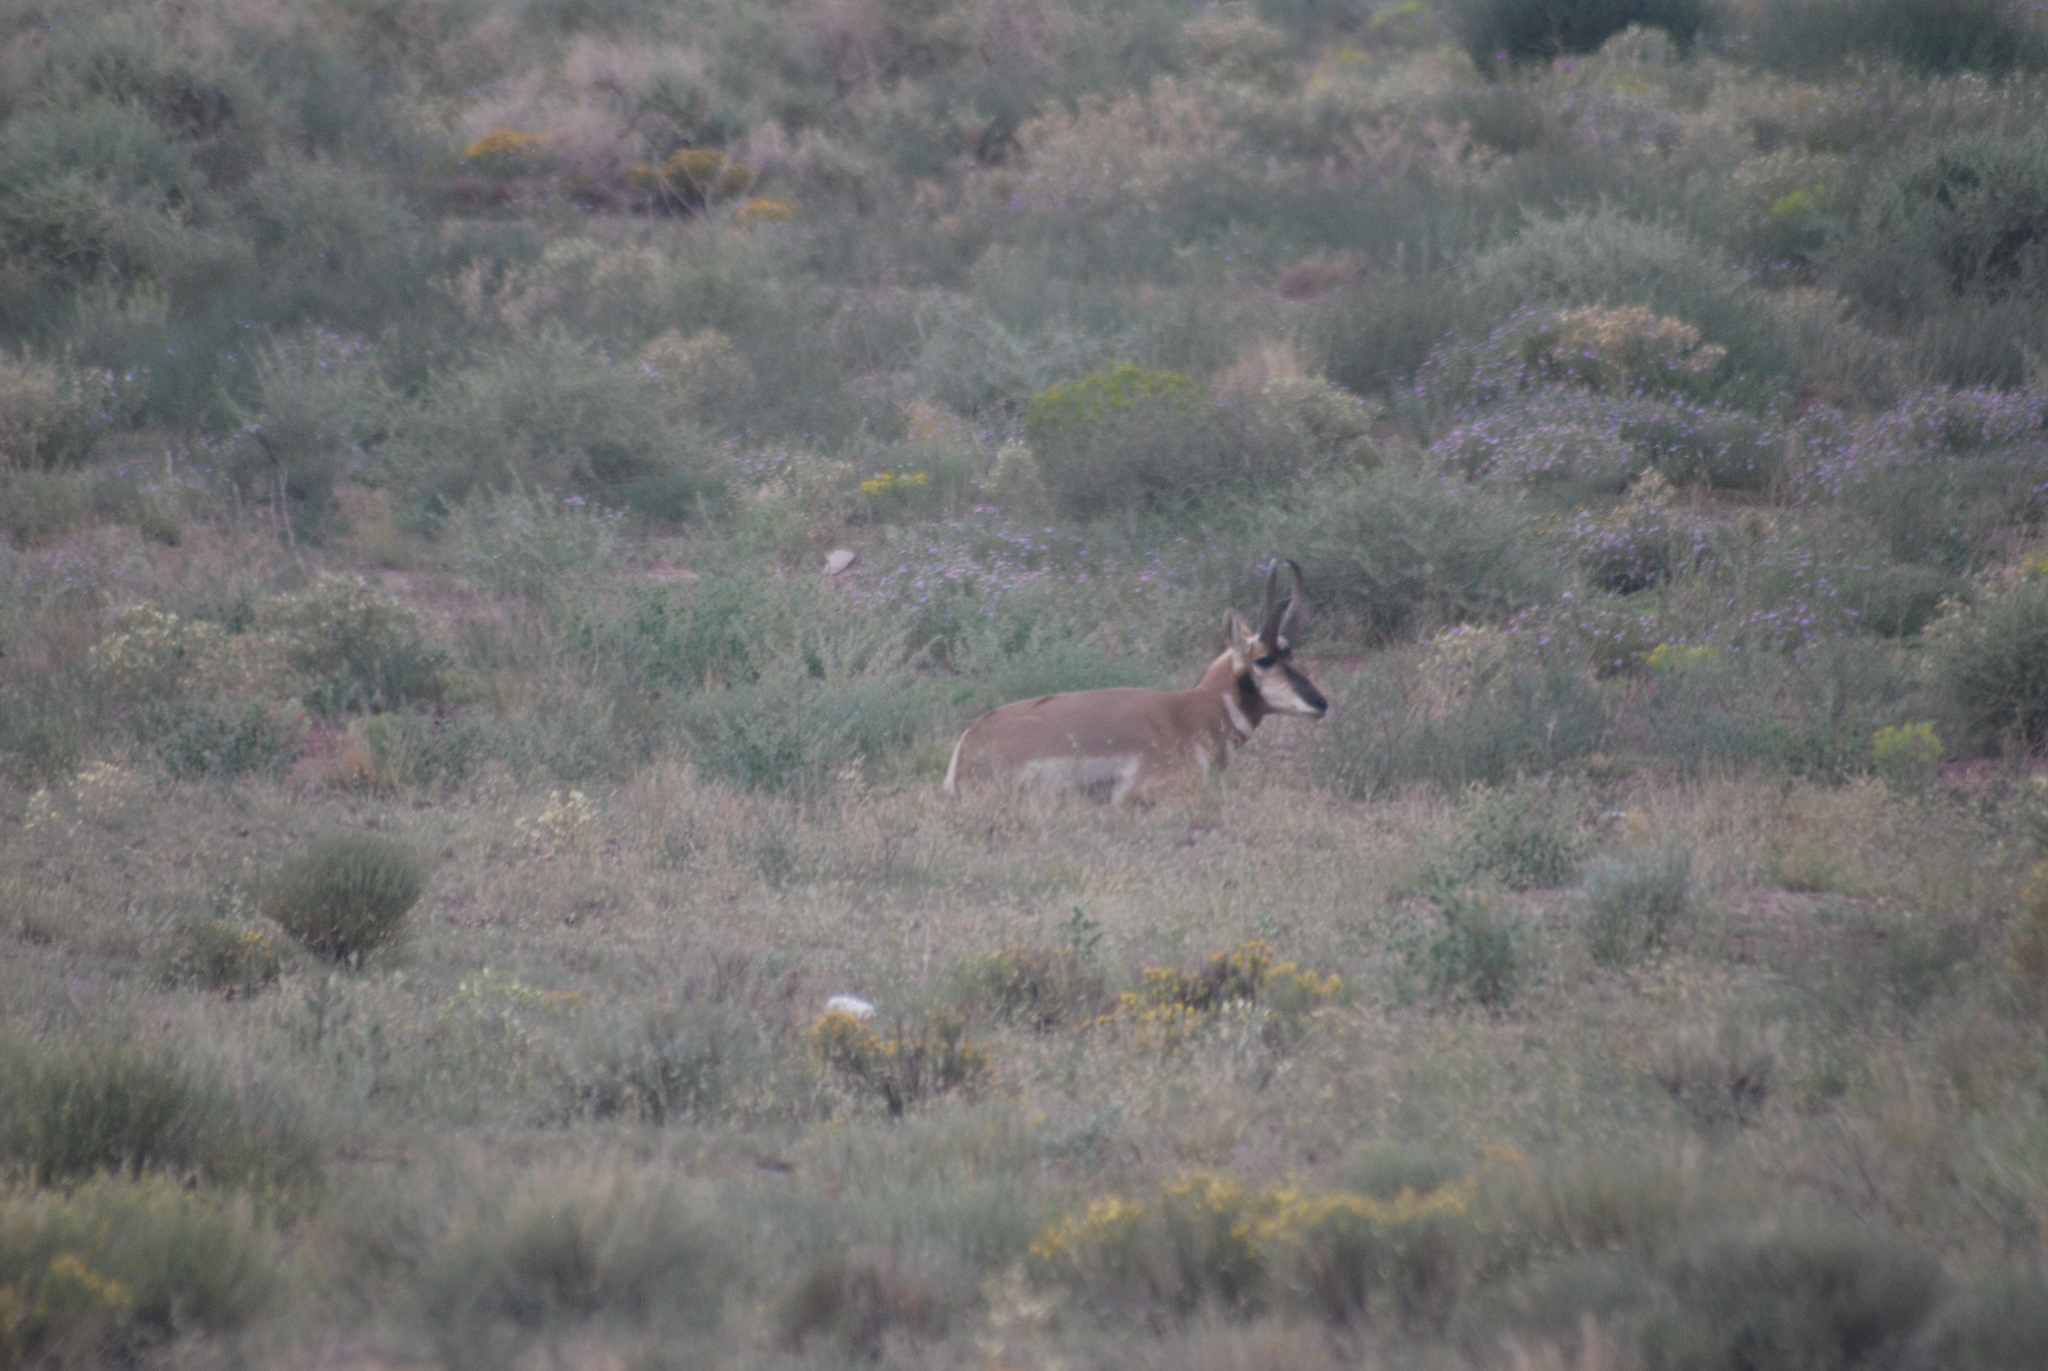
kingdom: Animalia
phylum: Chordata
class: Mammalia
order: Artiodactyla
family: Antilocapridae
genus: Antilocapra
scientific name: Antilocapra americana
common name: Pronghorn
